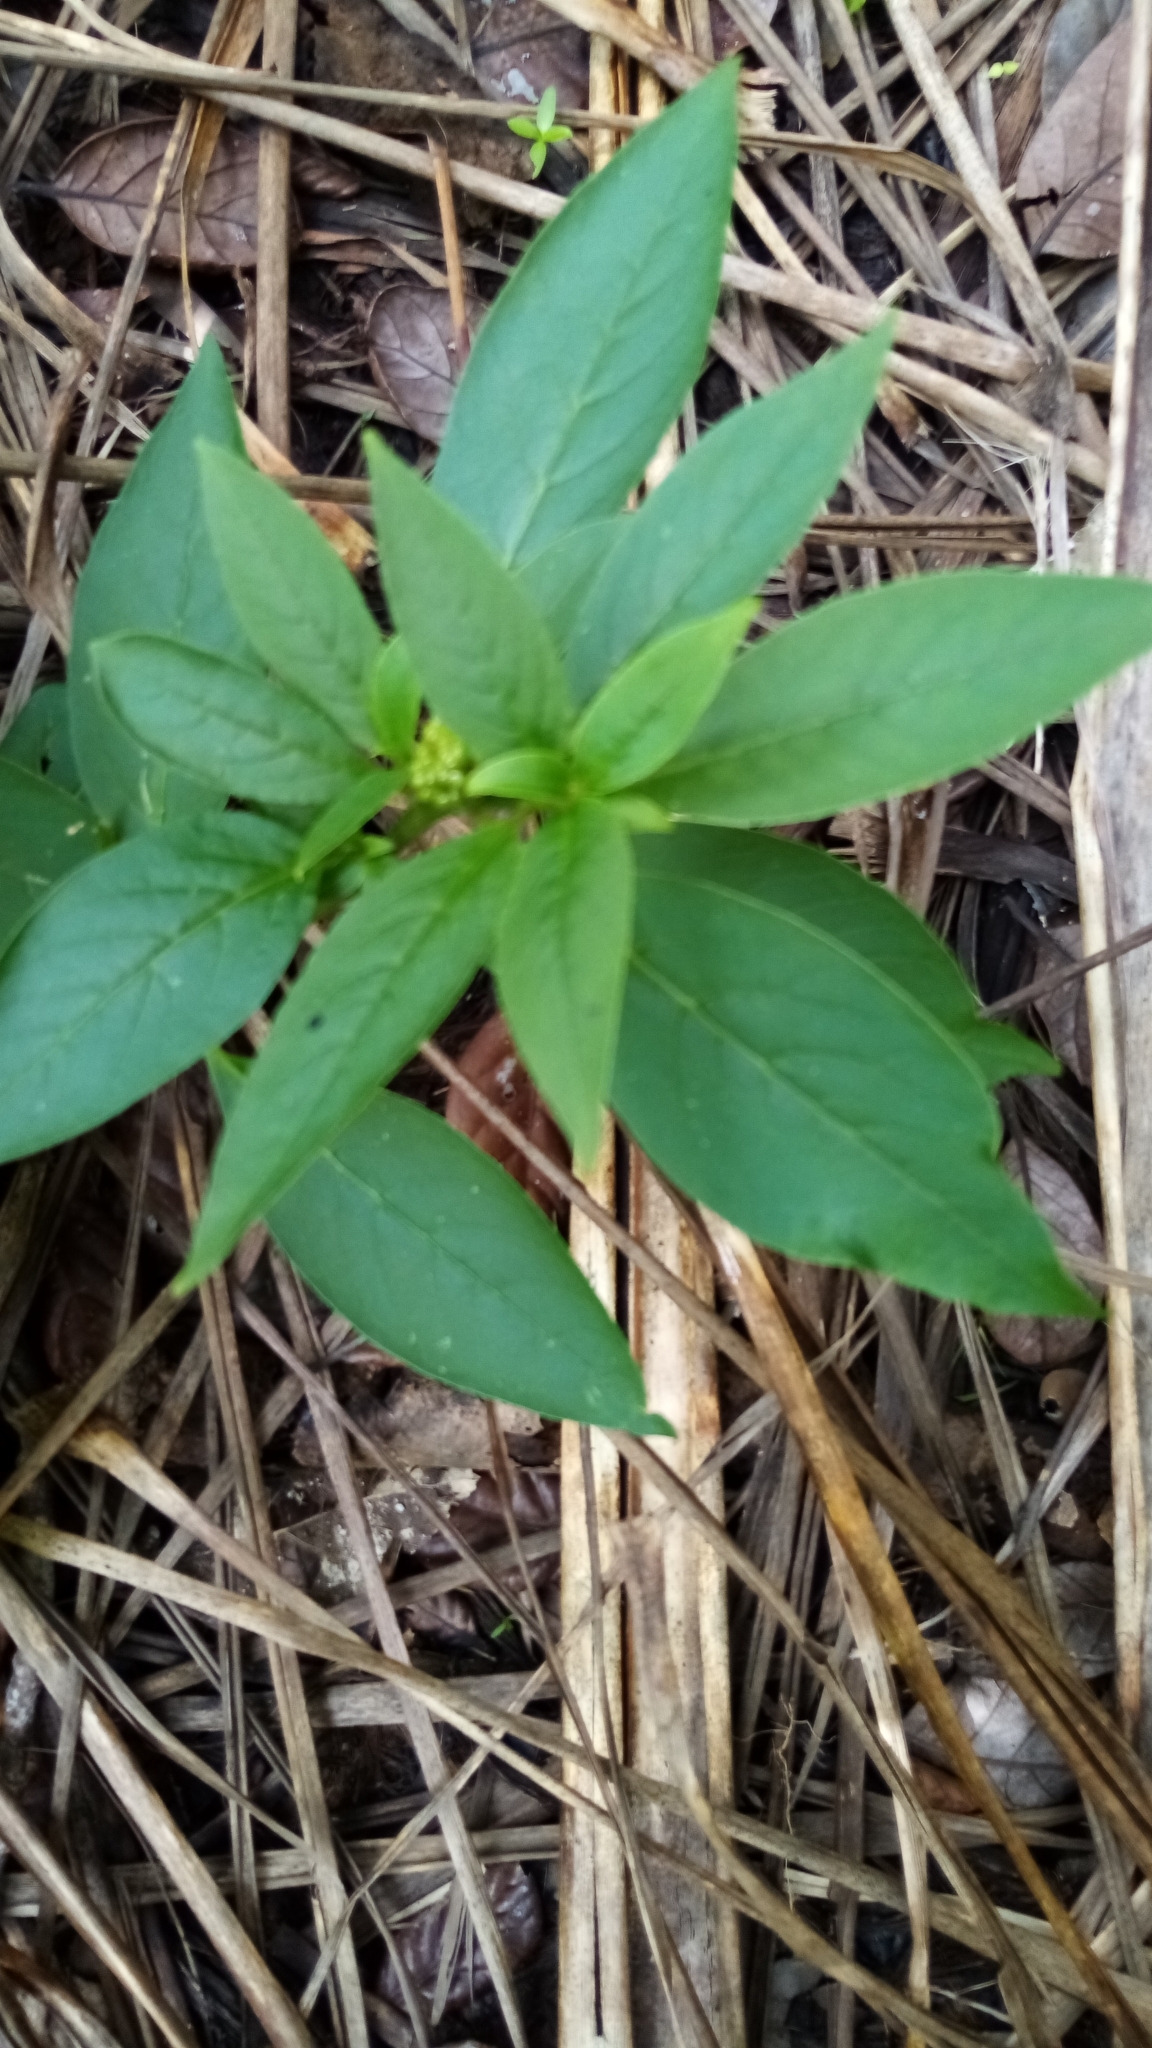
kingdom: Plantae
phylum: Tracheophyta
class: Magnoliopsida
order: Caryophyllales
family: Phytolaccaceae
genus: Phytolacca
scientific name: Phytolacca icosandra
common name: Button pokeweed
